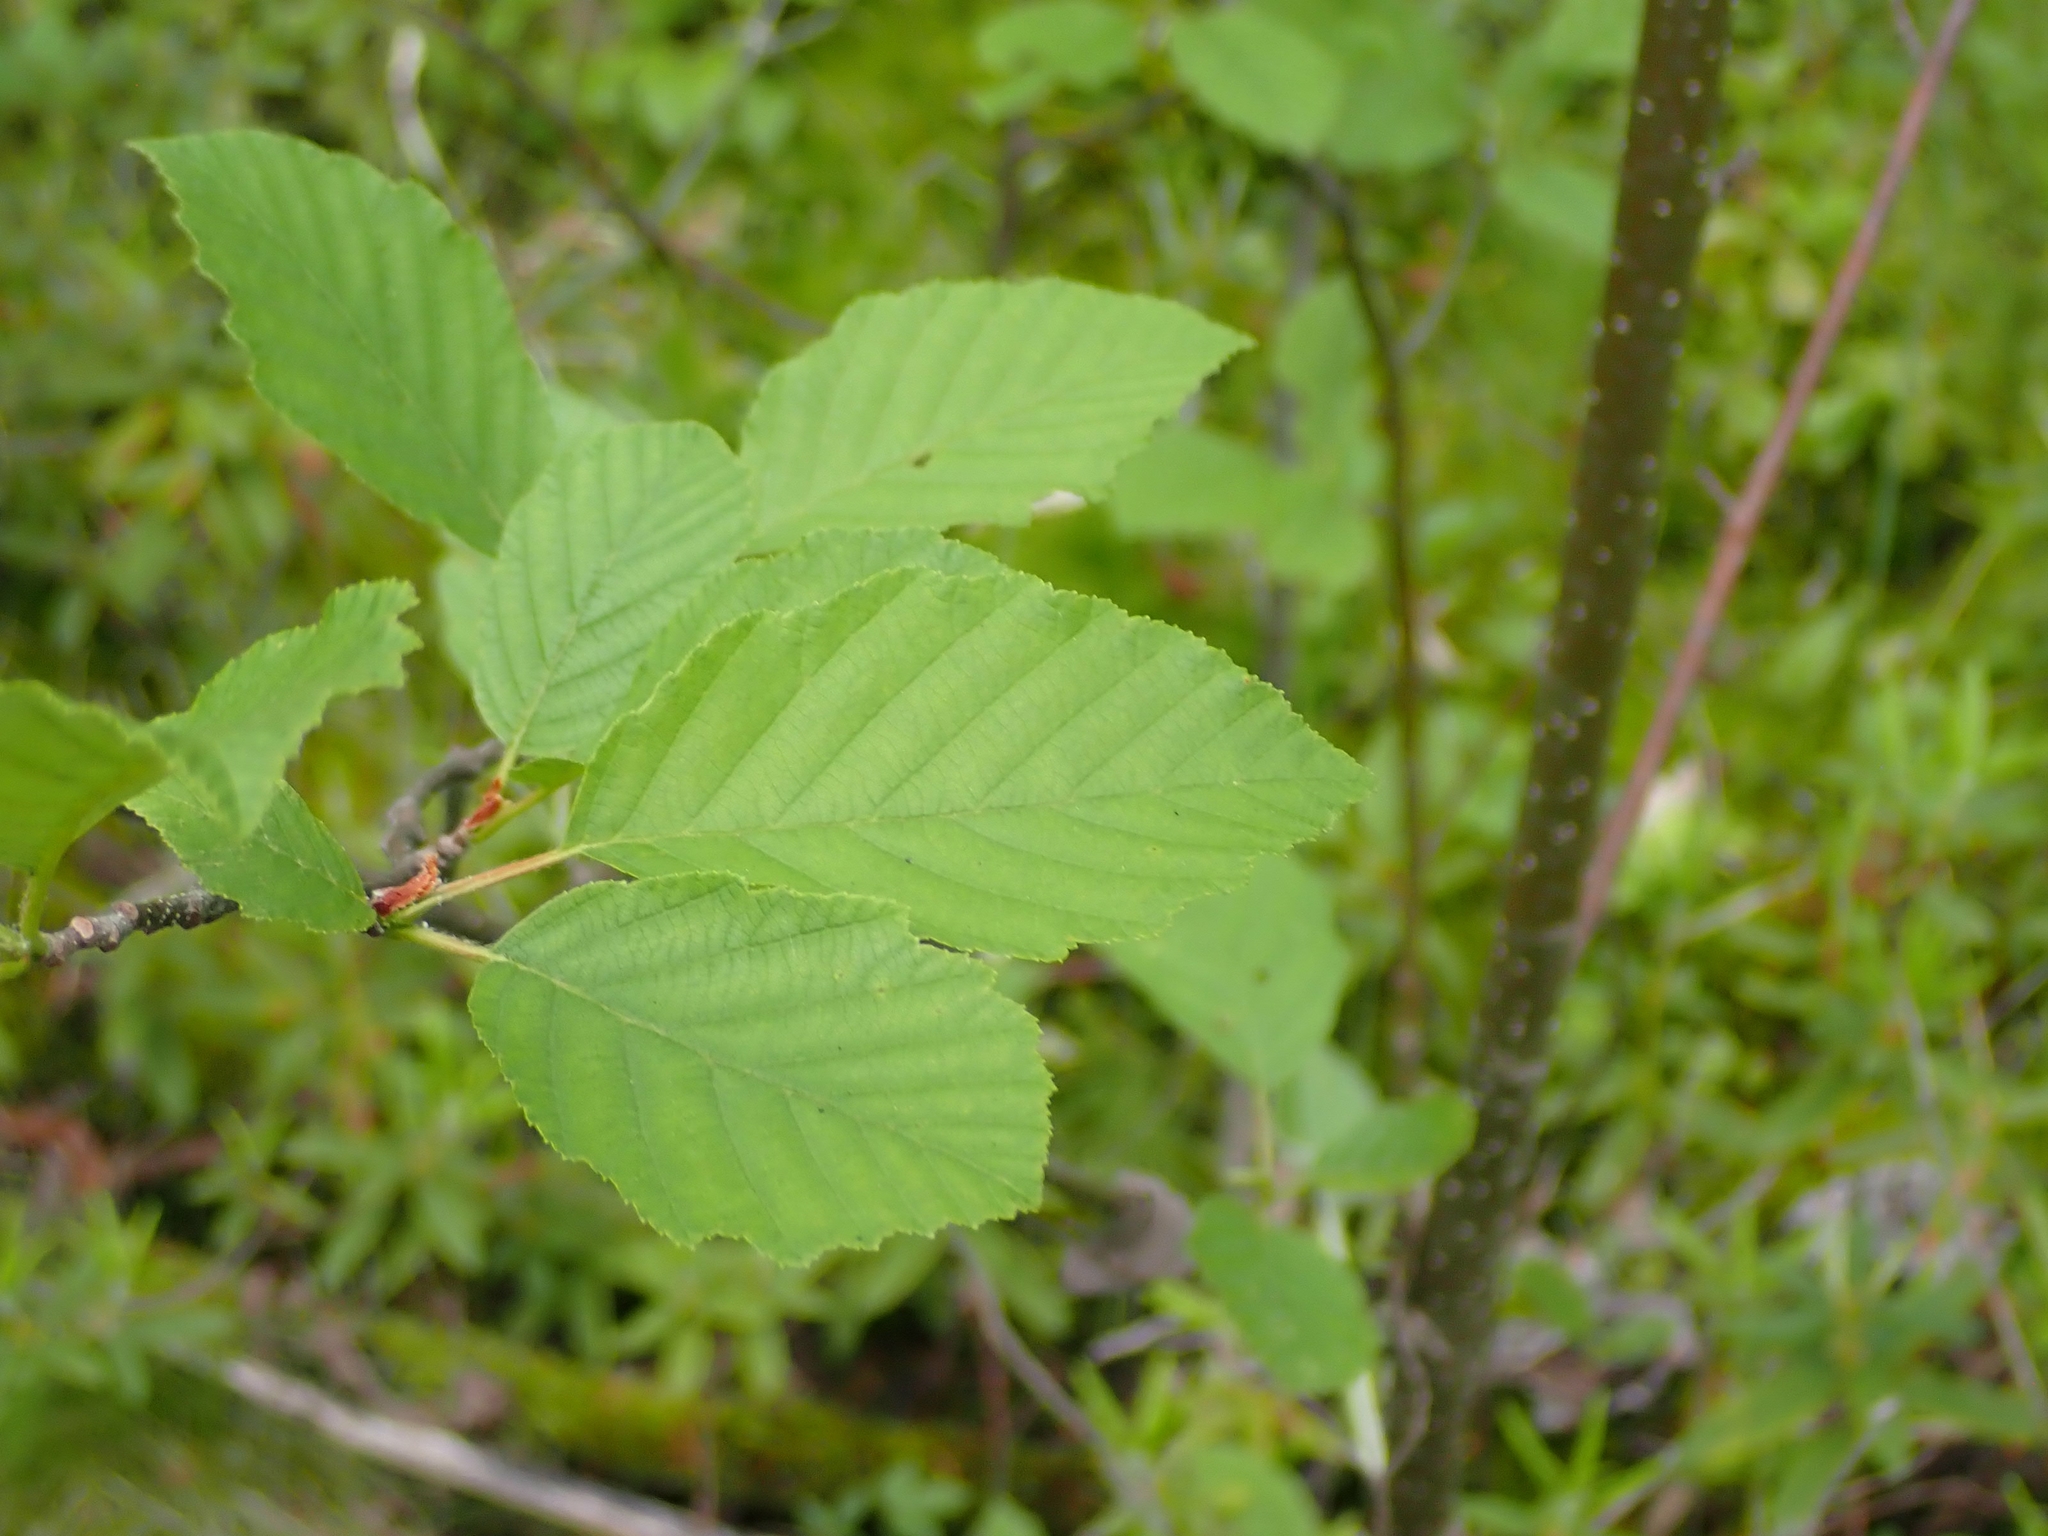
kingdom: Plantae
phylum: Tracheophyta
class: Magnoliopsida
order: Fagales
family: Betulaceae
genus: Alnus
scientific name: Alnus incana
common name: Grey alder
